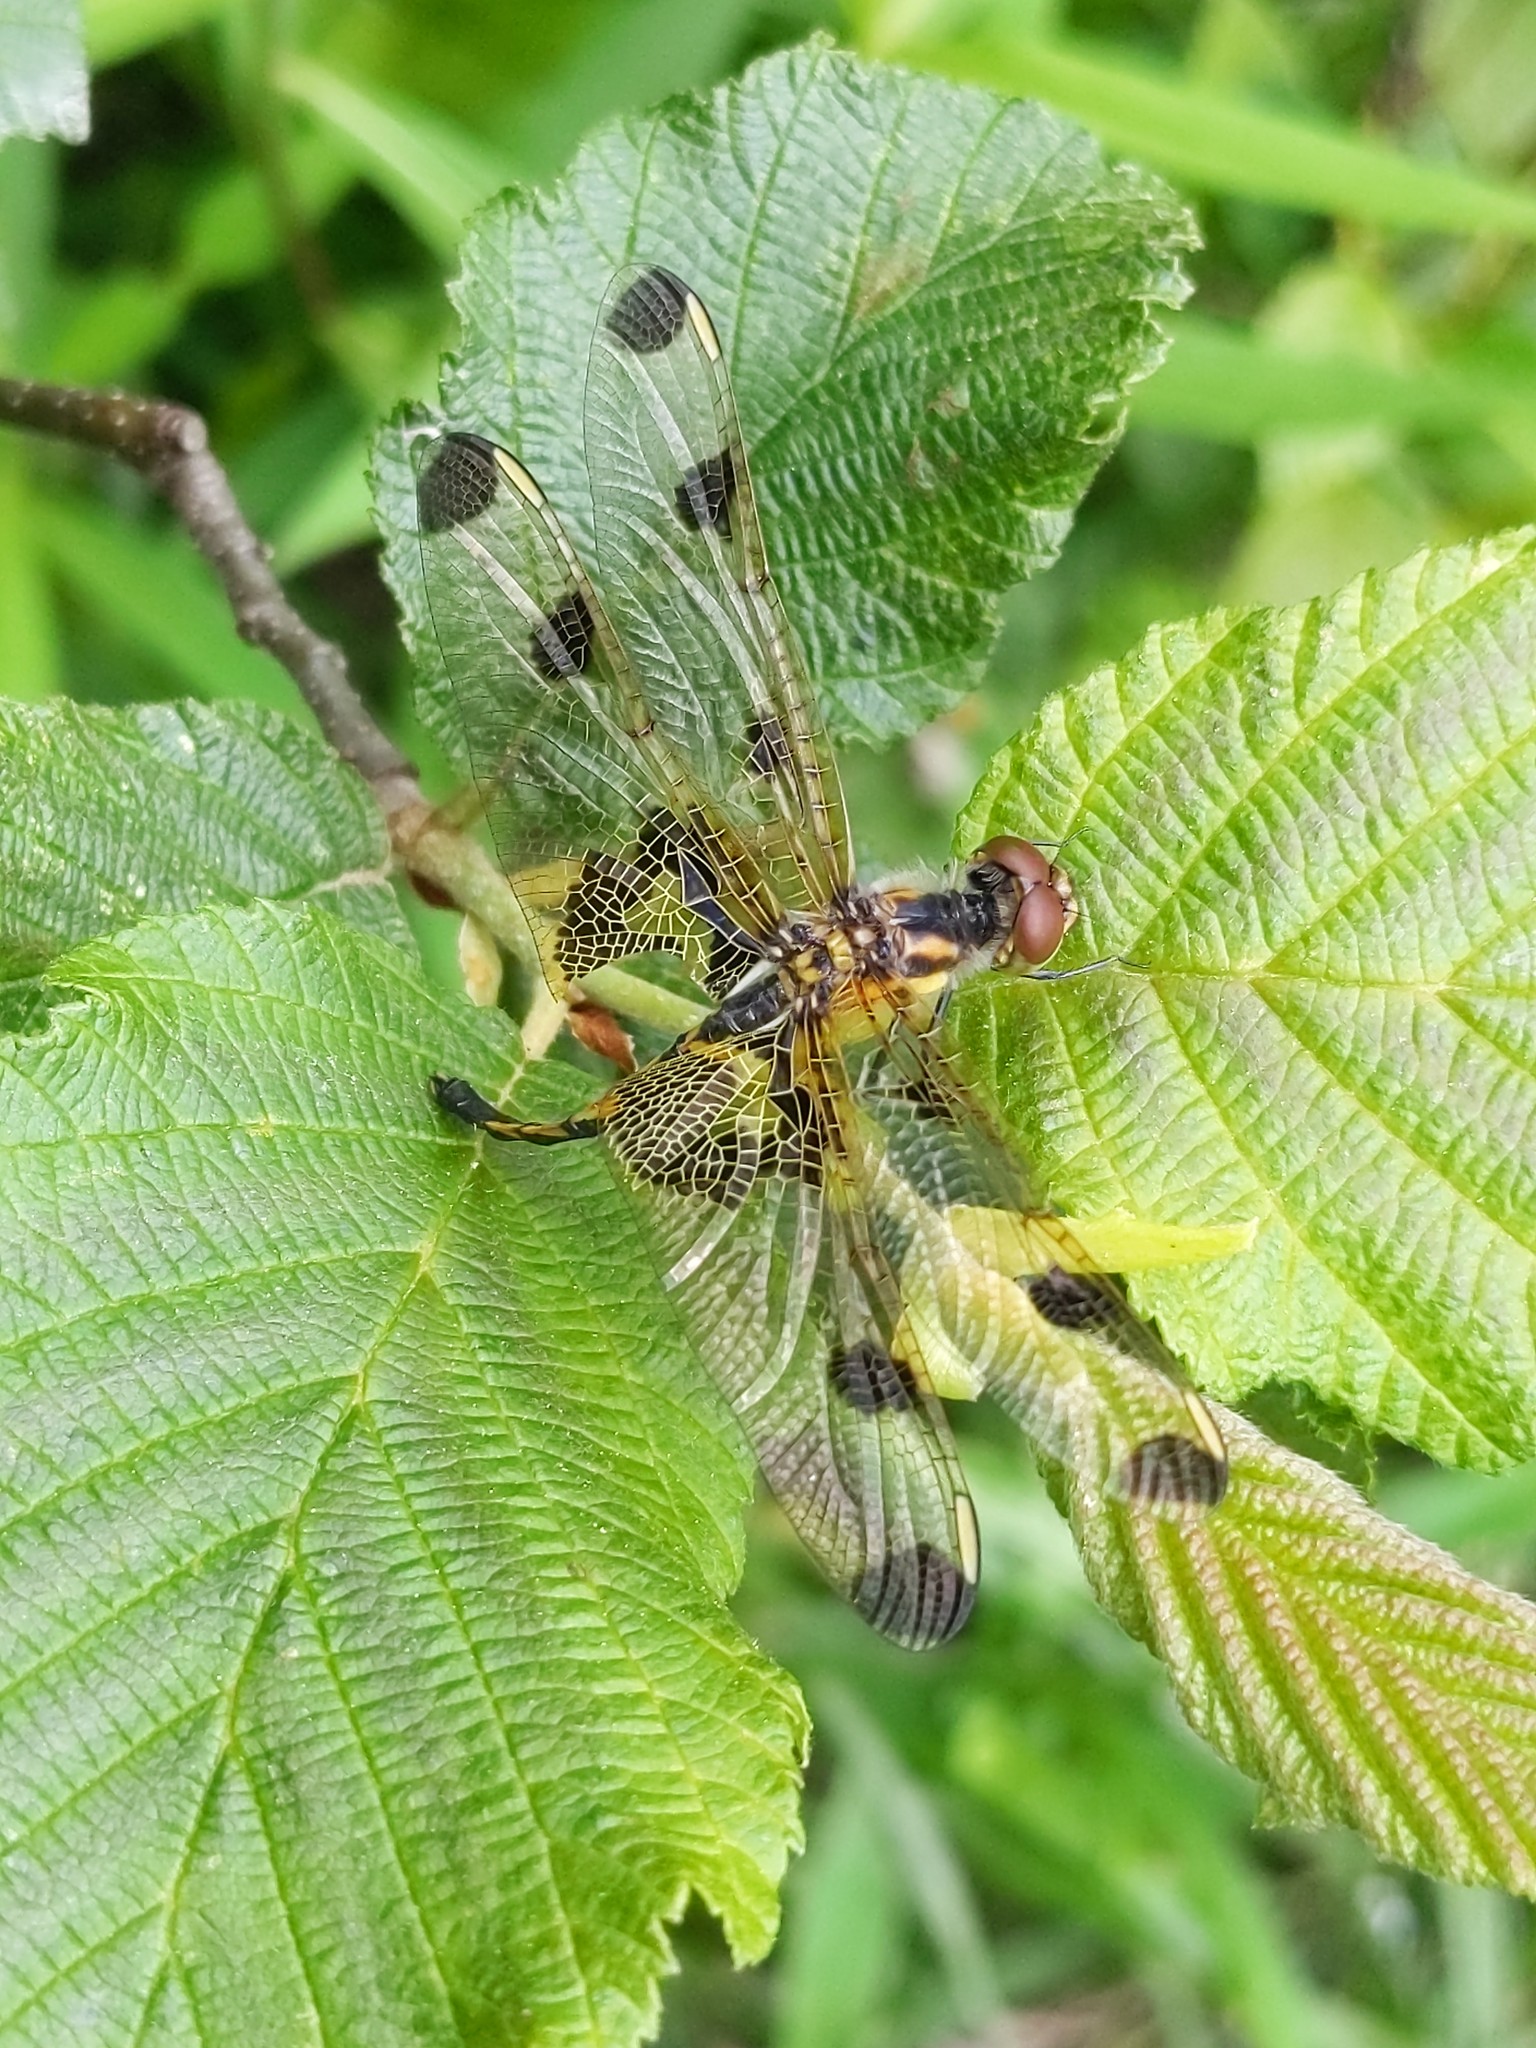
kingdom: Animalia
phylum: Arthropoda
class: Insecta
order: Odonata
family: Libellulidae
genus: Celithemis
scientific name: Celithemis elisa
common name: Calico pennant
